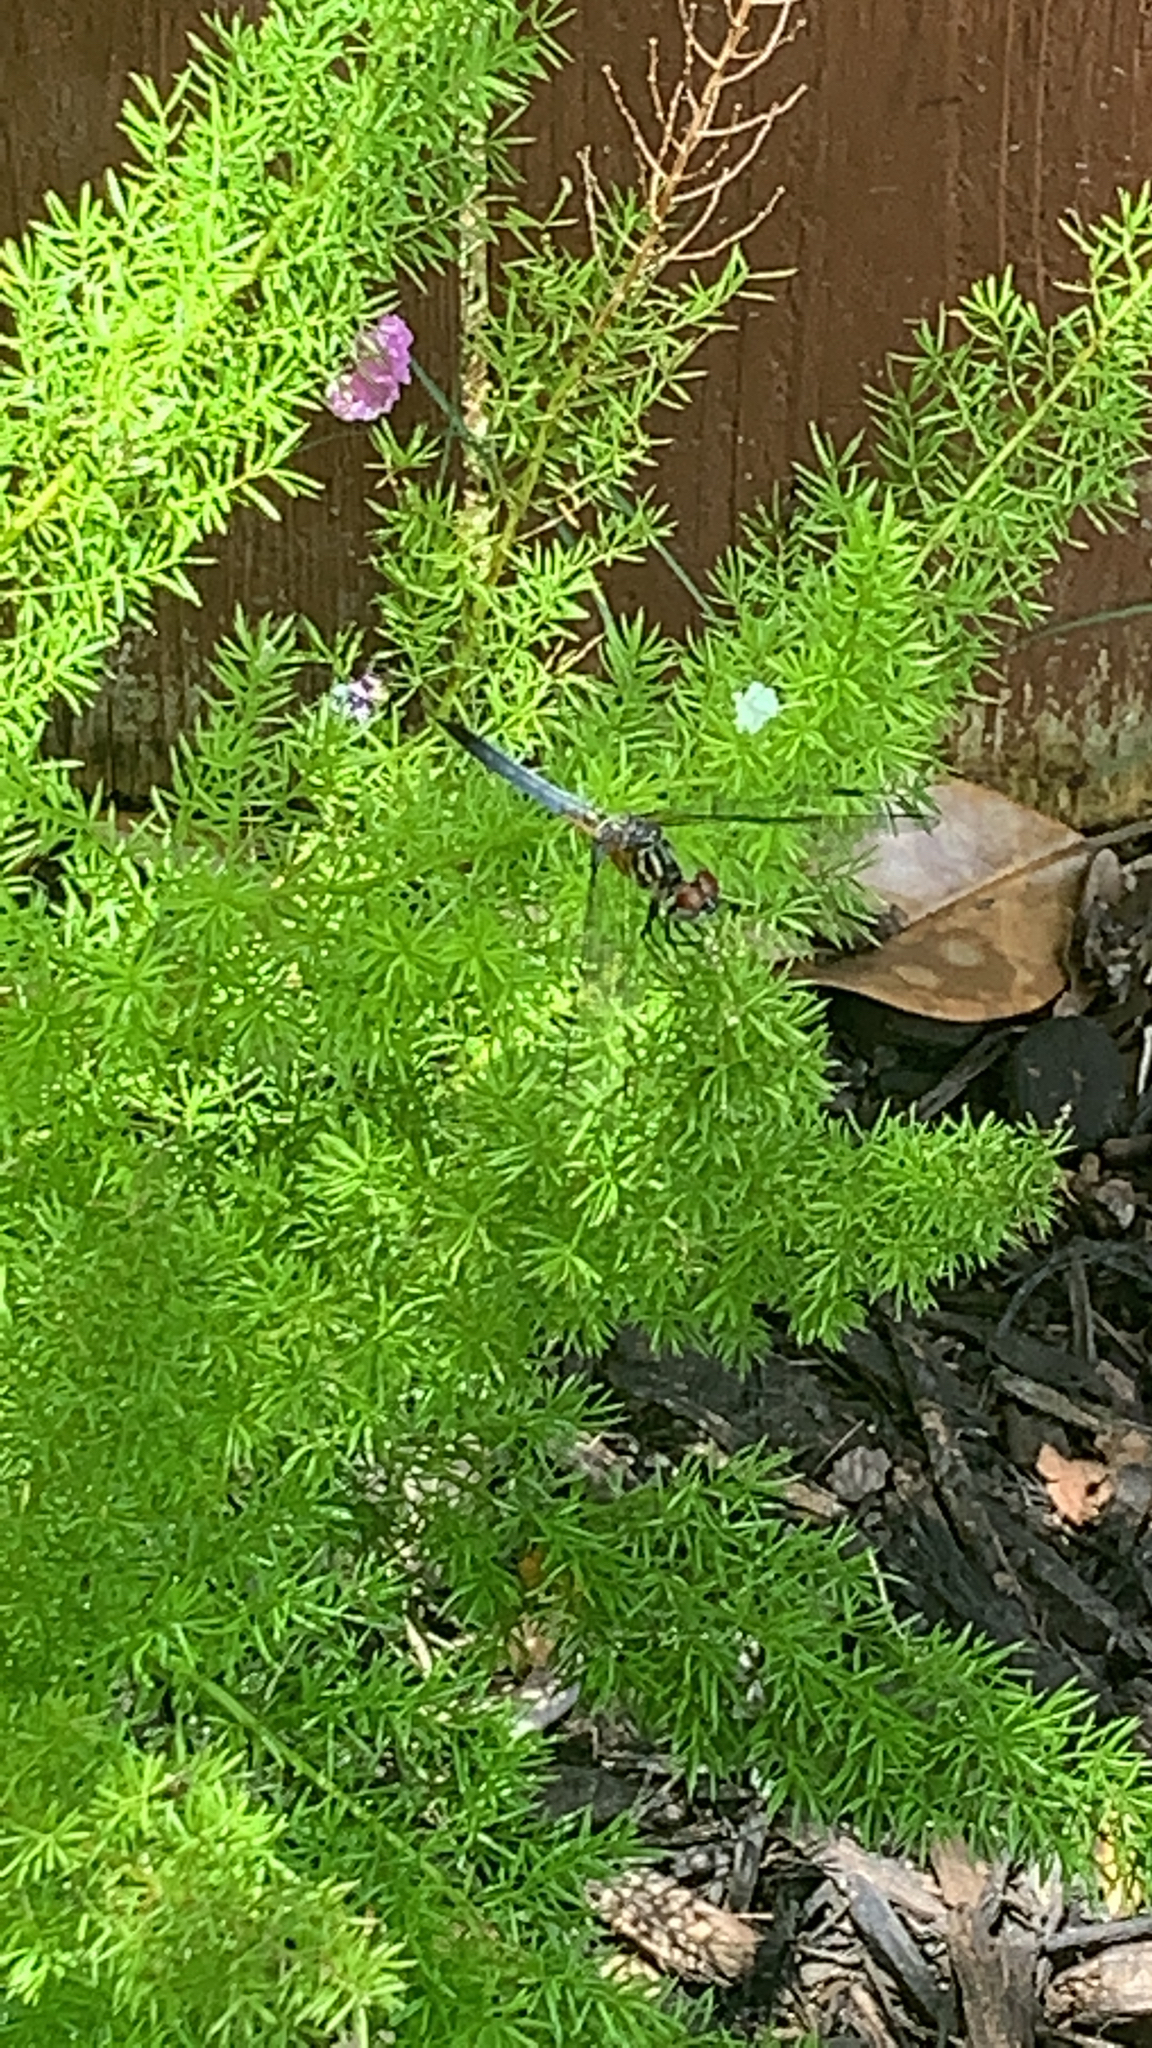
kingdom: Animalia
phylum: Arthropoda
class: Insecta
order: Odonata
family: Libellulidae
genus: Pachydiplax
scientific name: Pachydiplax longipennis
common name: Blue dasher
